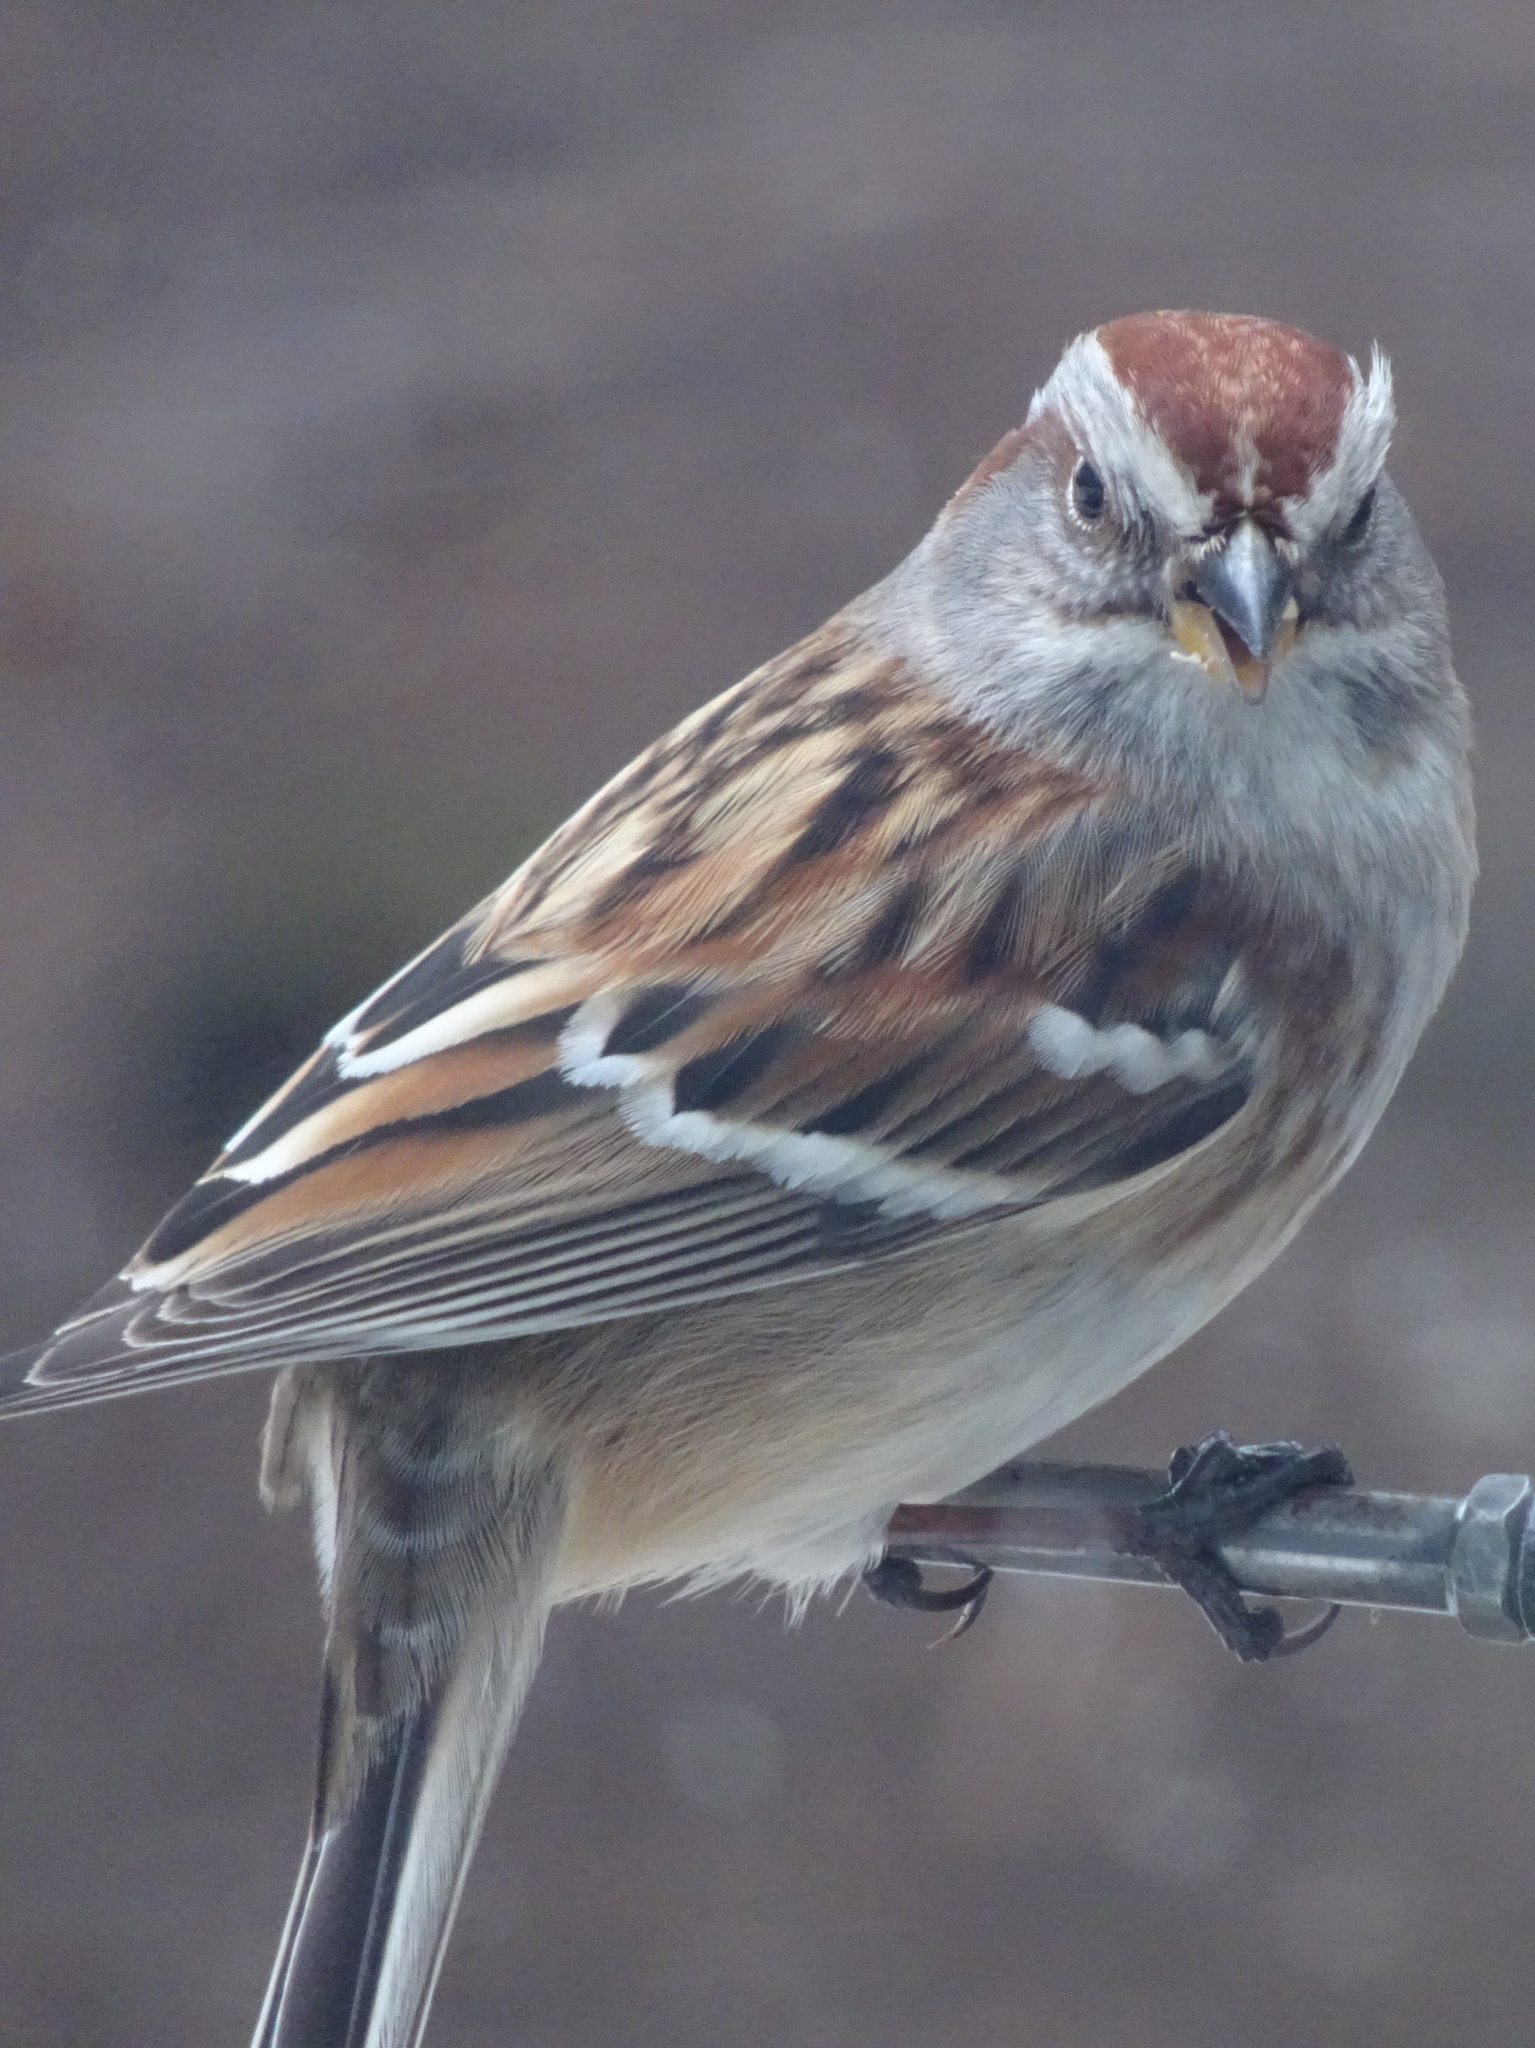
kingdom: Animalia
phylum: Chordata
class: Aves
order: Passeriformes
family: Passerellidae
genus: Spizelloides
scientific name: Spizelloides arborea
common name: American tree sparrow
